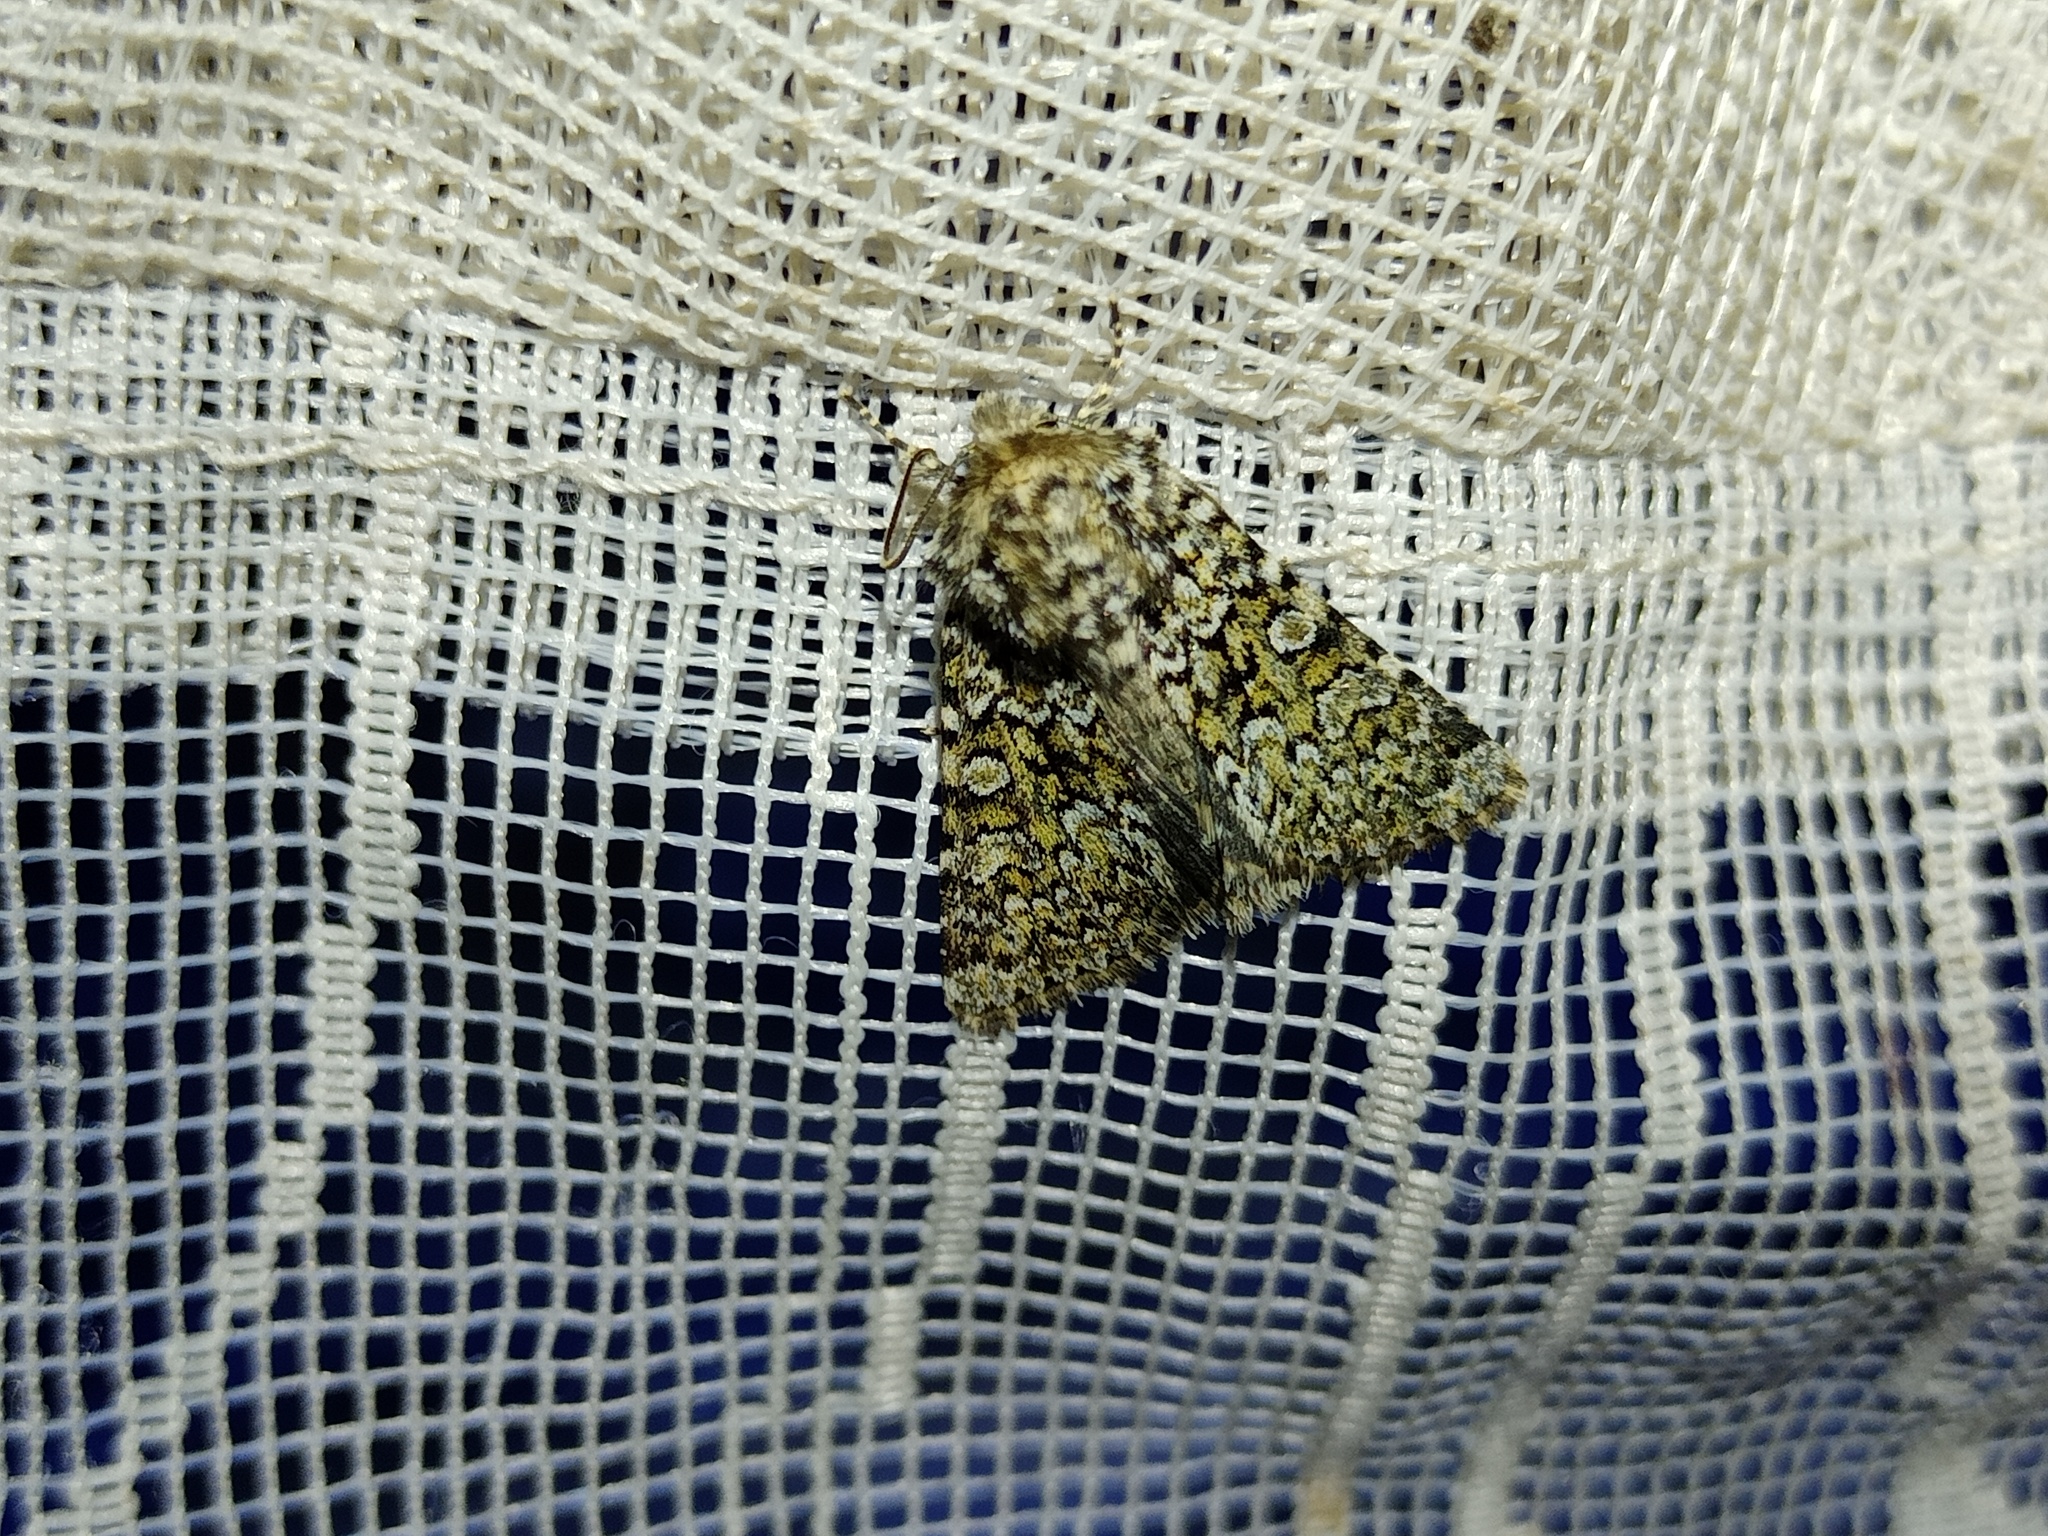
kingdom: Animalia
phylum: Arthropoda
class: Insecta
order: Lepidoptera
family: Noctuidae
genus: Hadena
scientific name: Hadena tephroleuca
